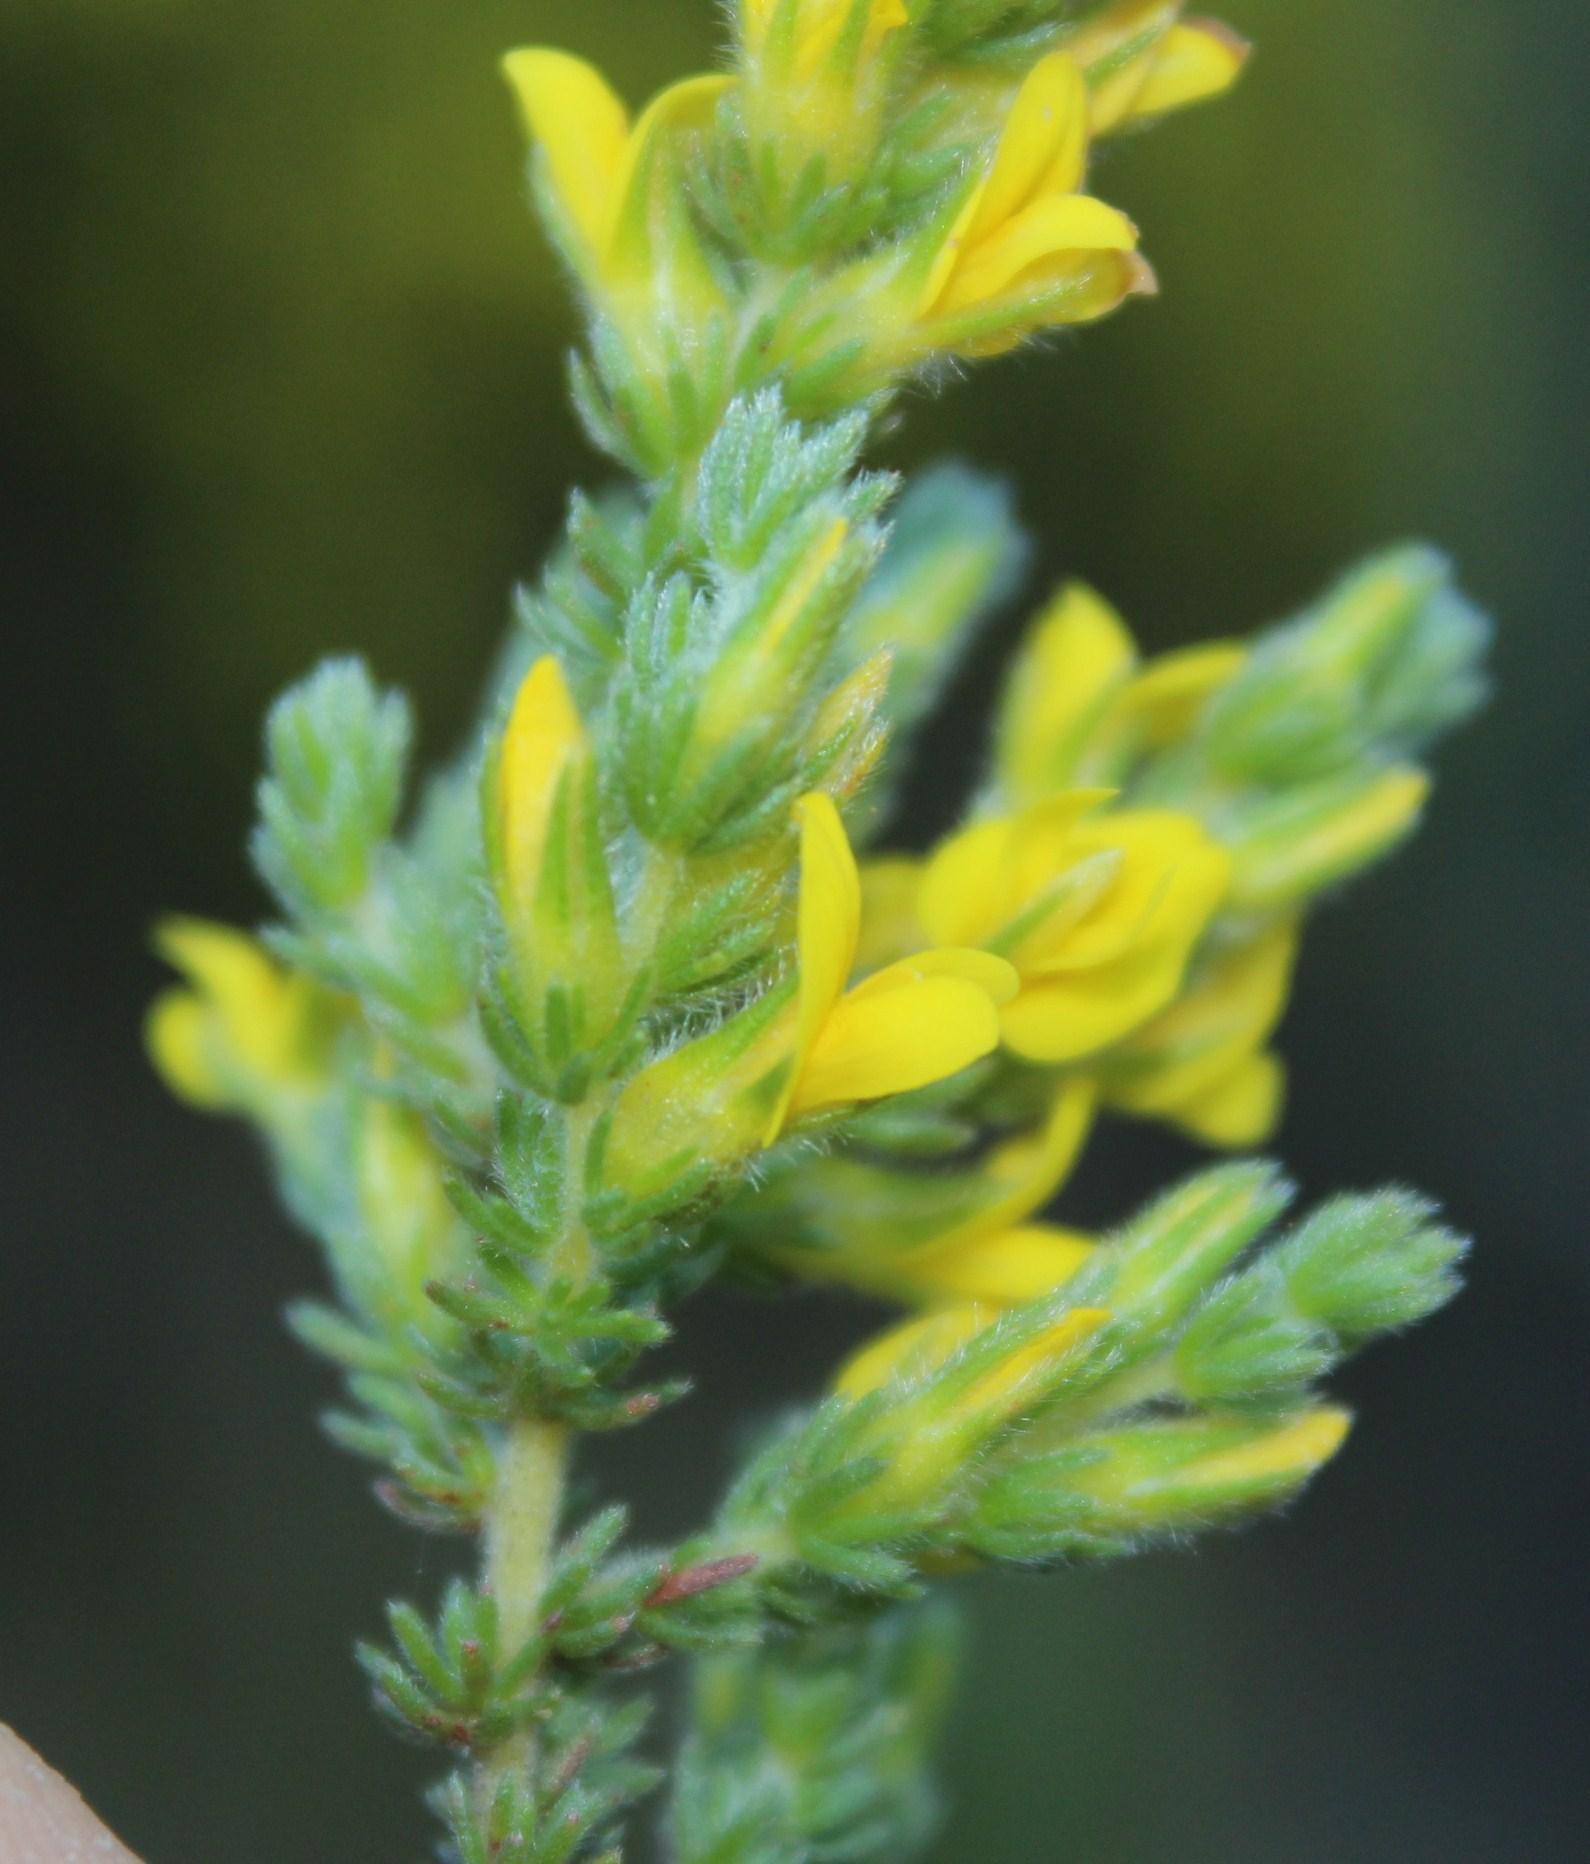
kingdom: Plantae
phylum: Tracheophyta
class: Magnoliopsida
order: Fabales
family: Fabaceae
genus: Aspalathus
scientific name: Aspalathus ericifolia
